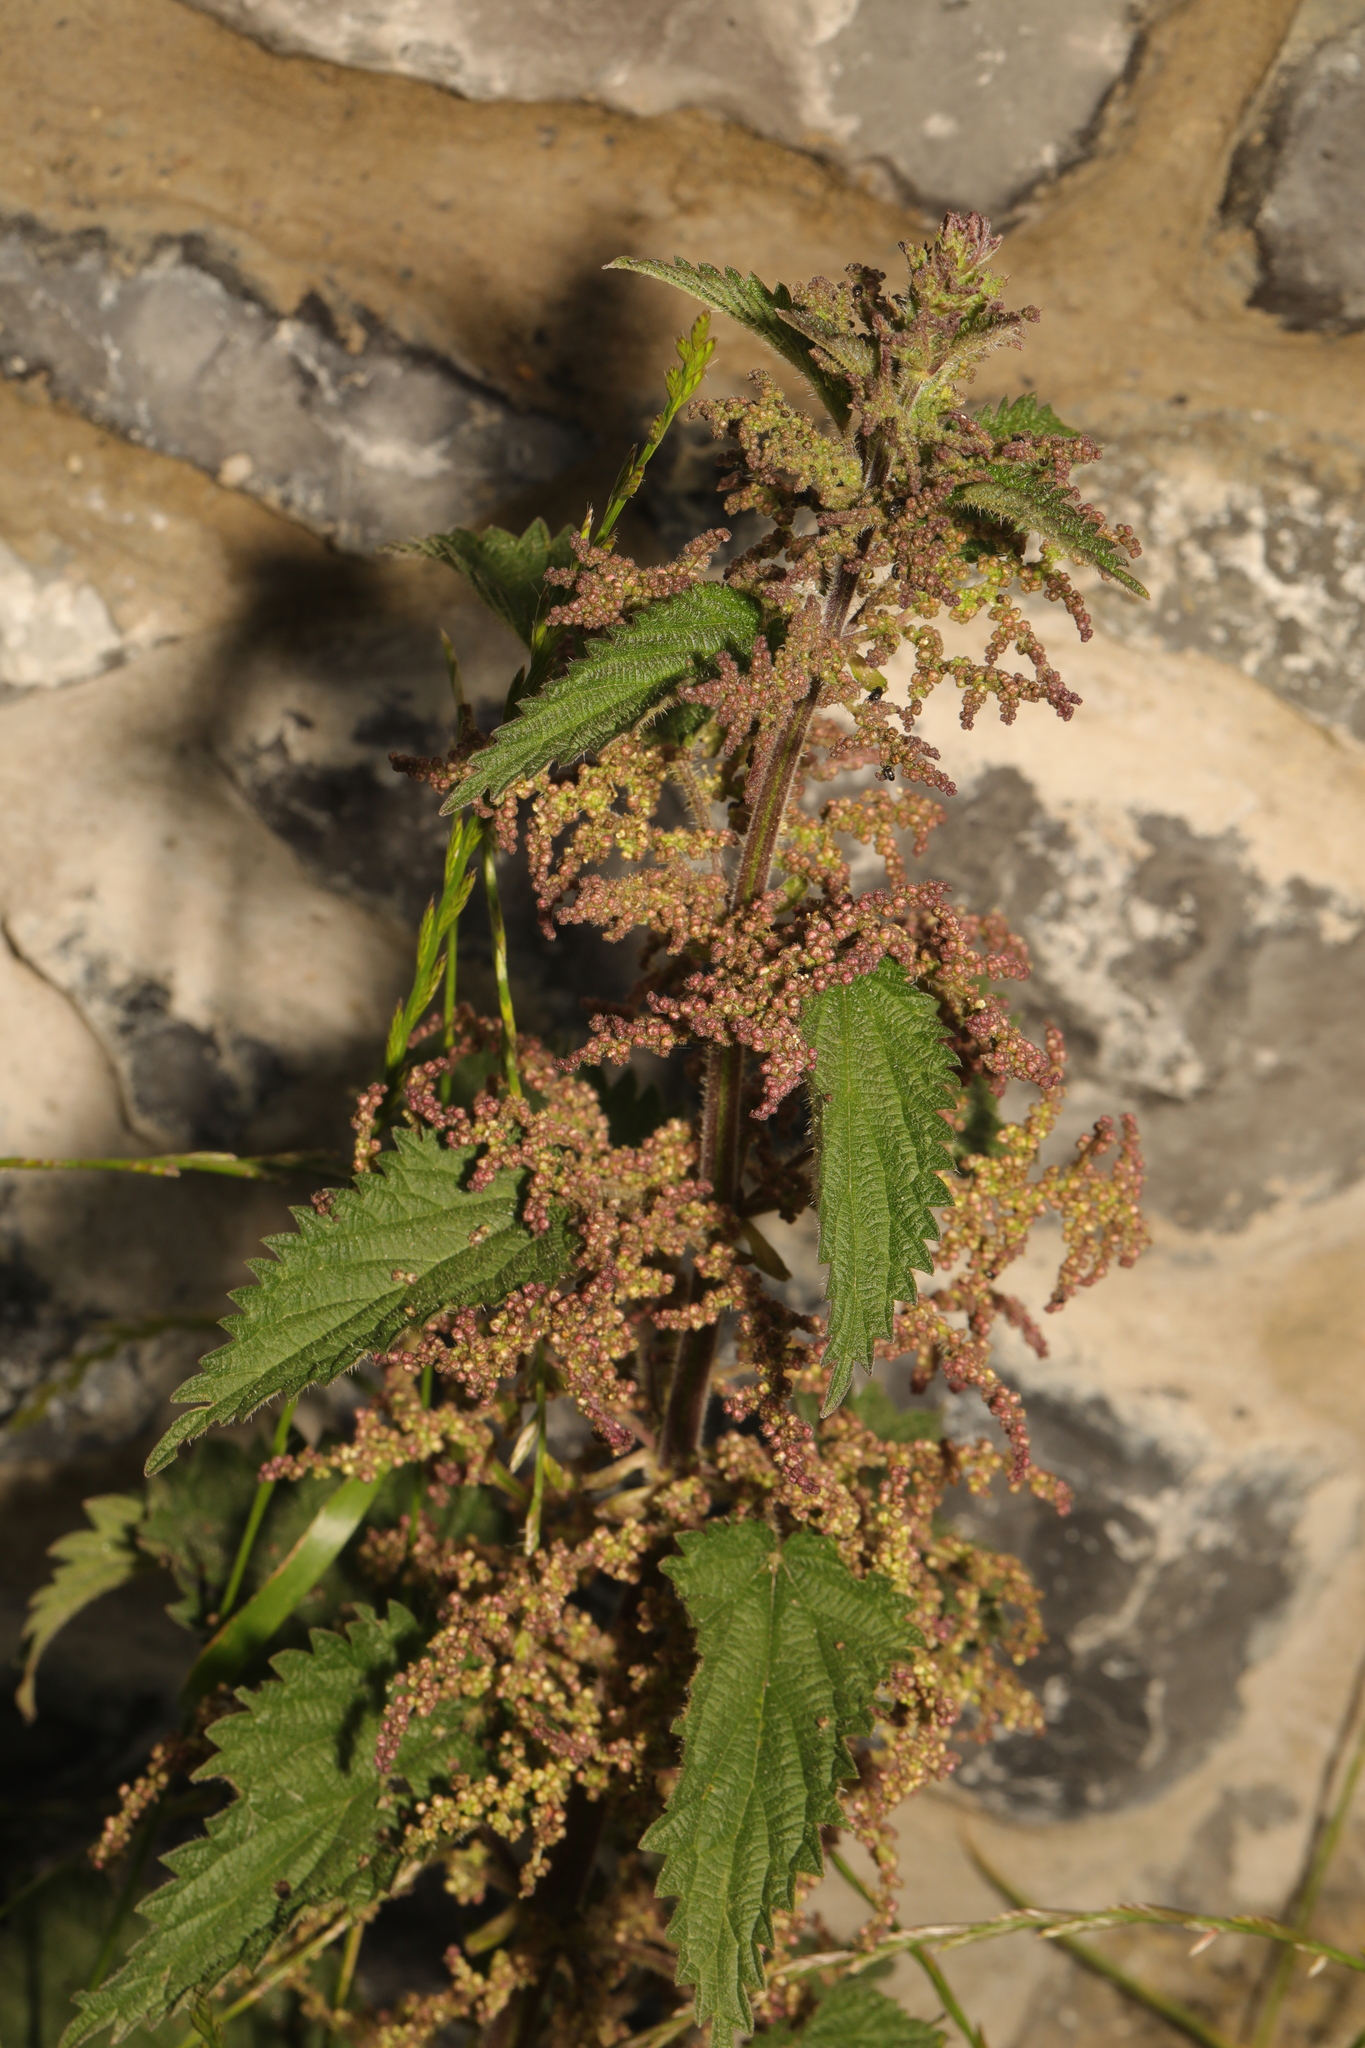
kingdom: Plantae
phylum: Tracheophyta
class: Magnoliopsida
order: Rosales
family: Urticaceae
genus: Urtica
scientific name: Urtica dioica
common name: Common nettle
